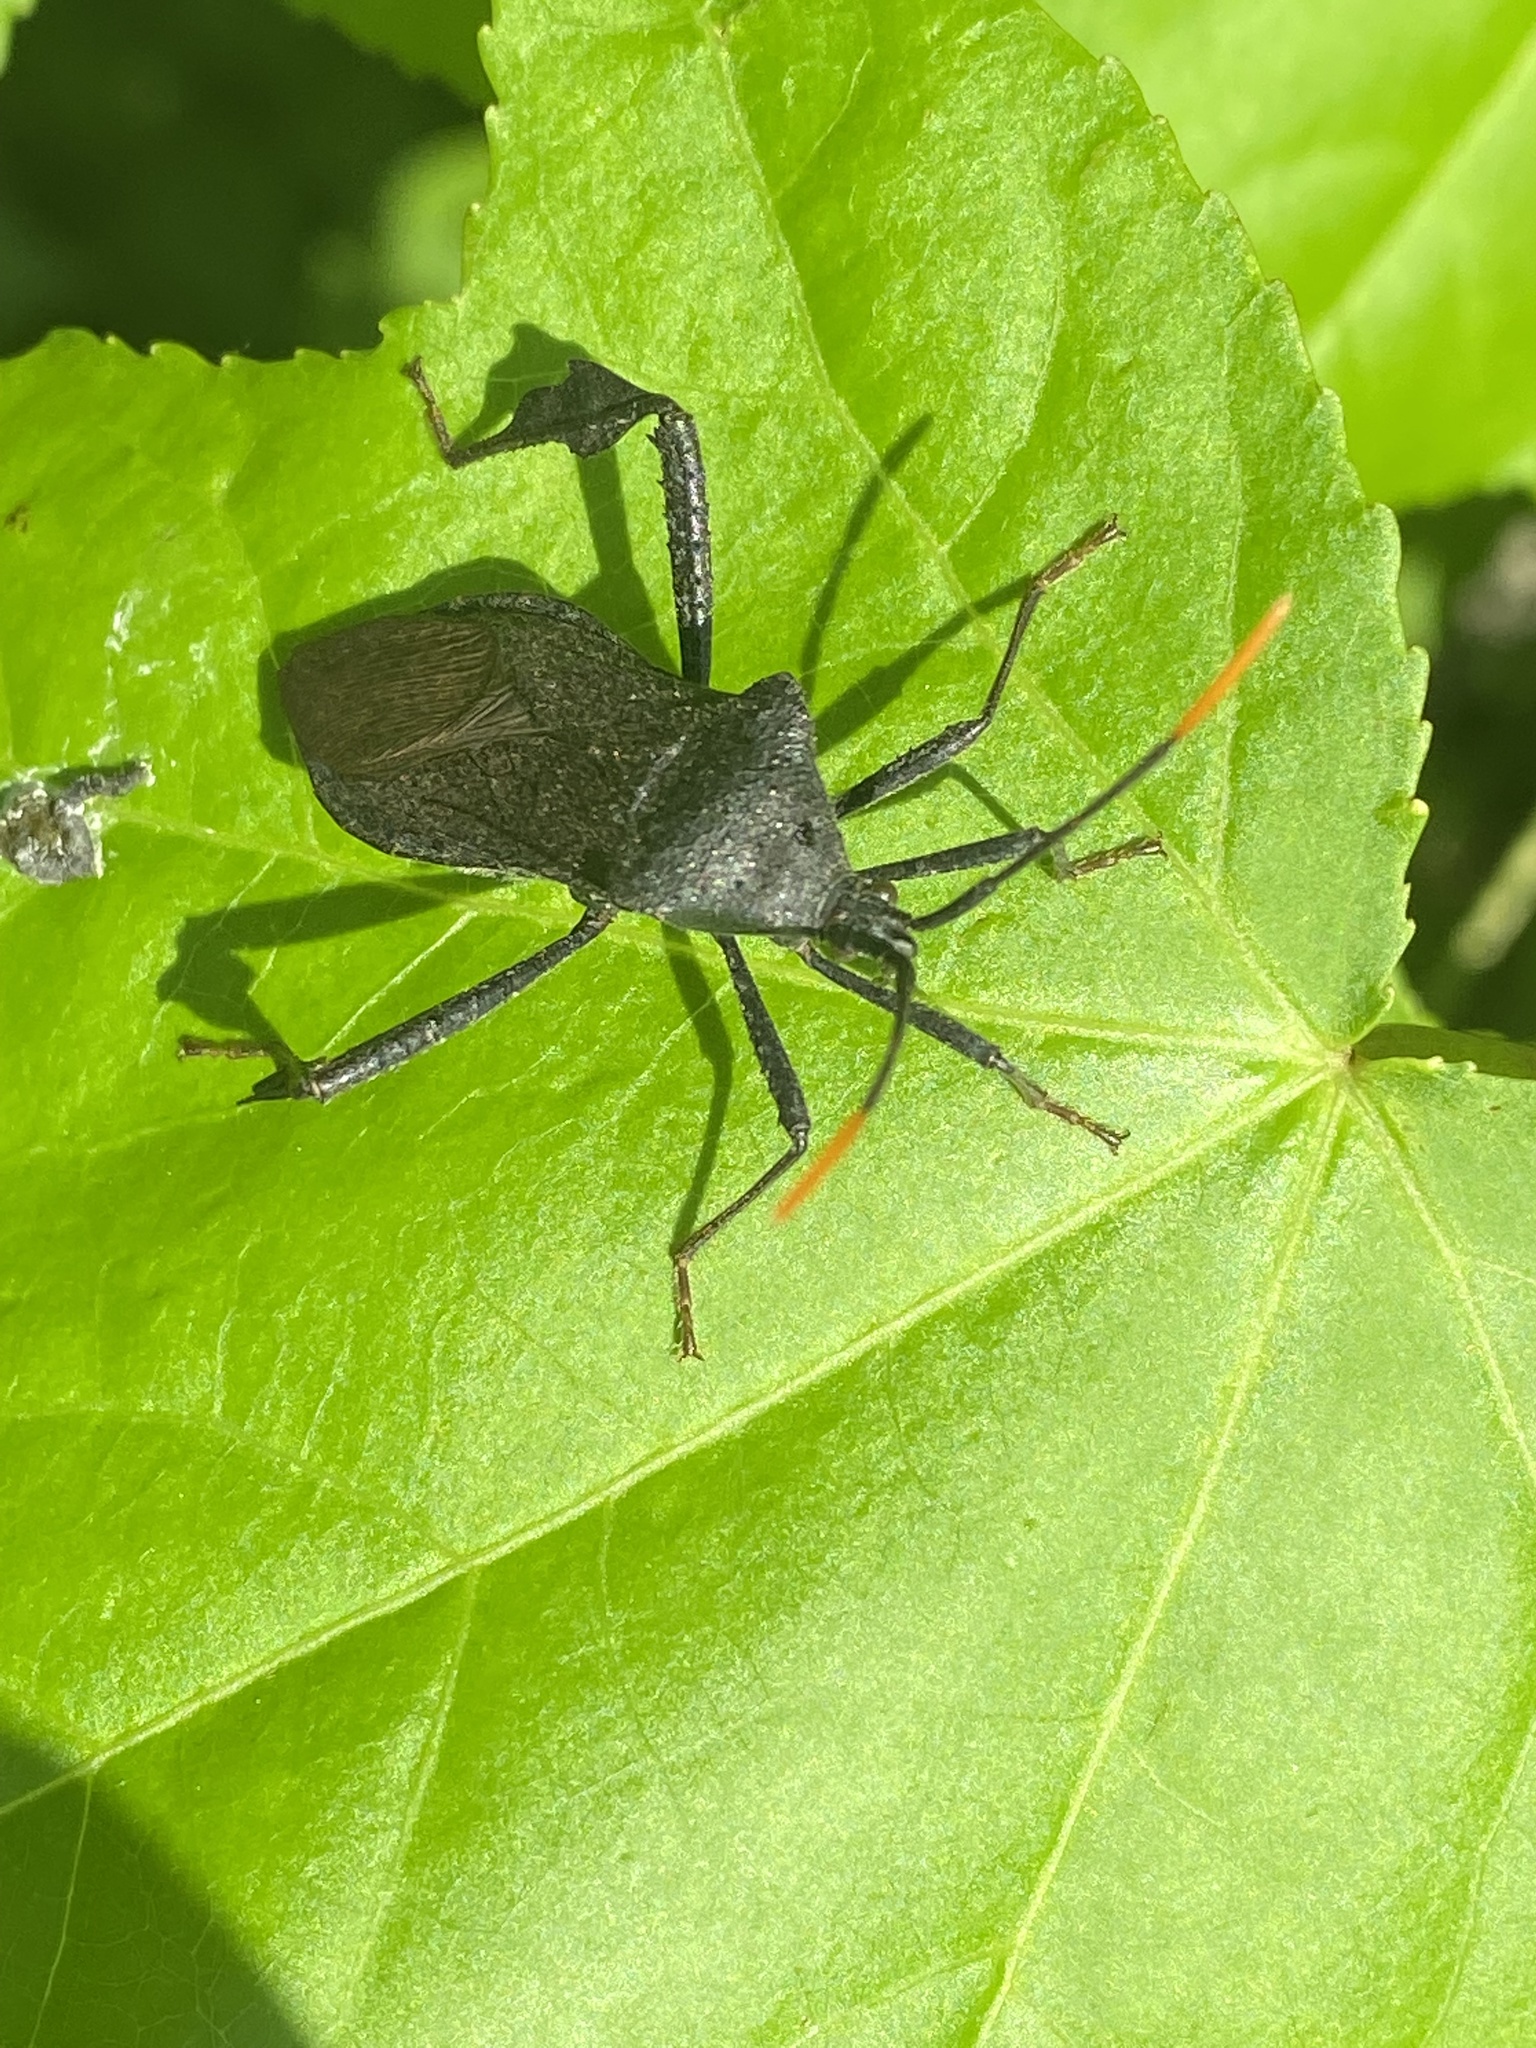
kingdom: Animalia
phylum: Arthropoda
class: Insecta
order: Hemiptera
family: Coreidae
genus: Acanthocephala
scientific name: Acanthocephala terminalis
